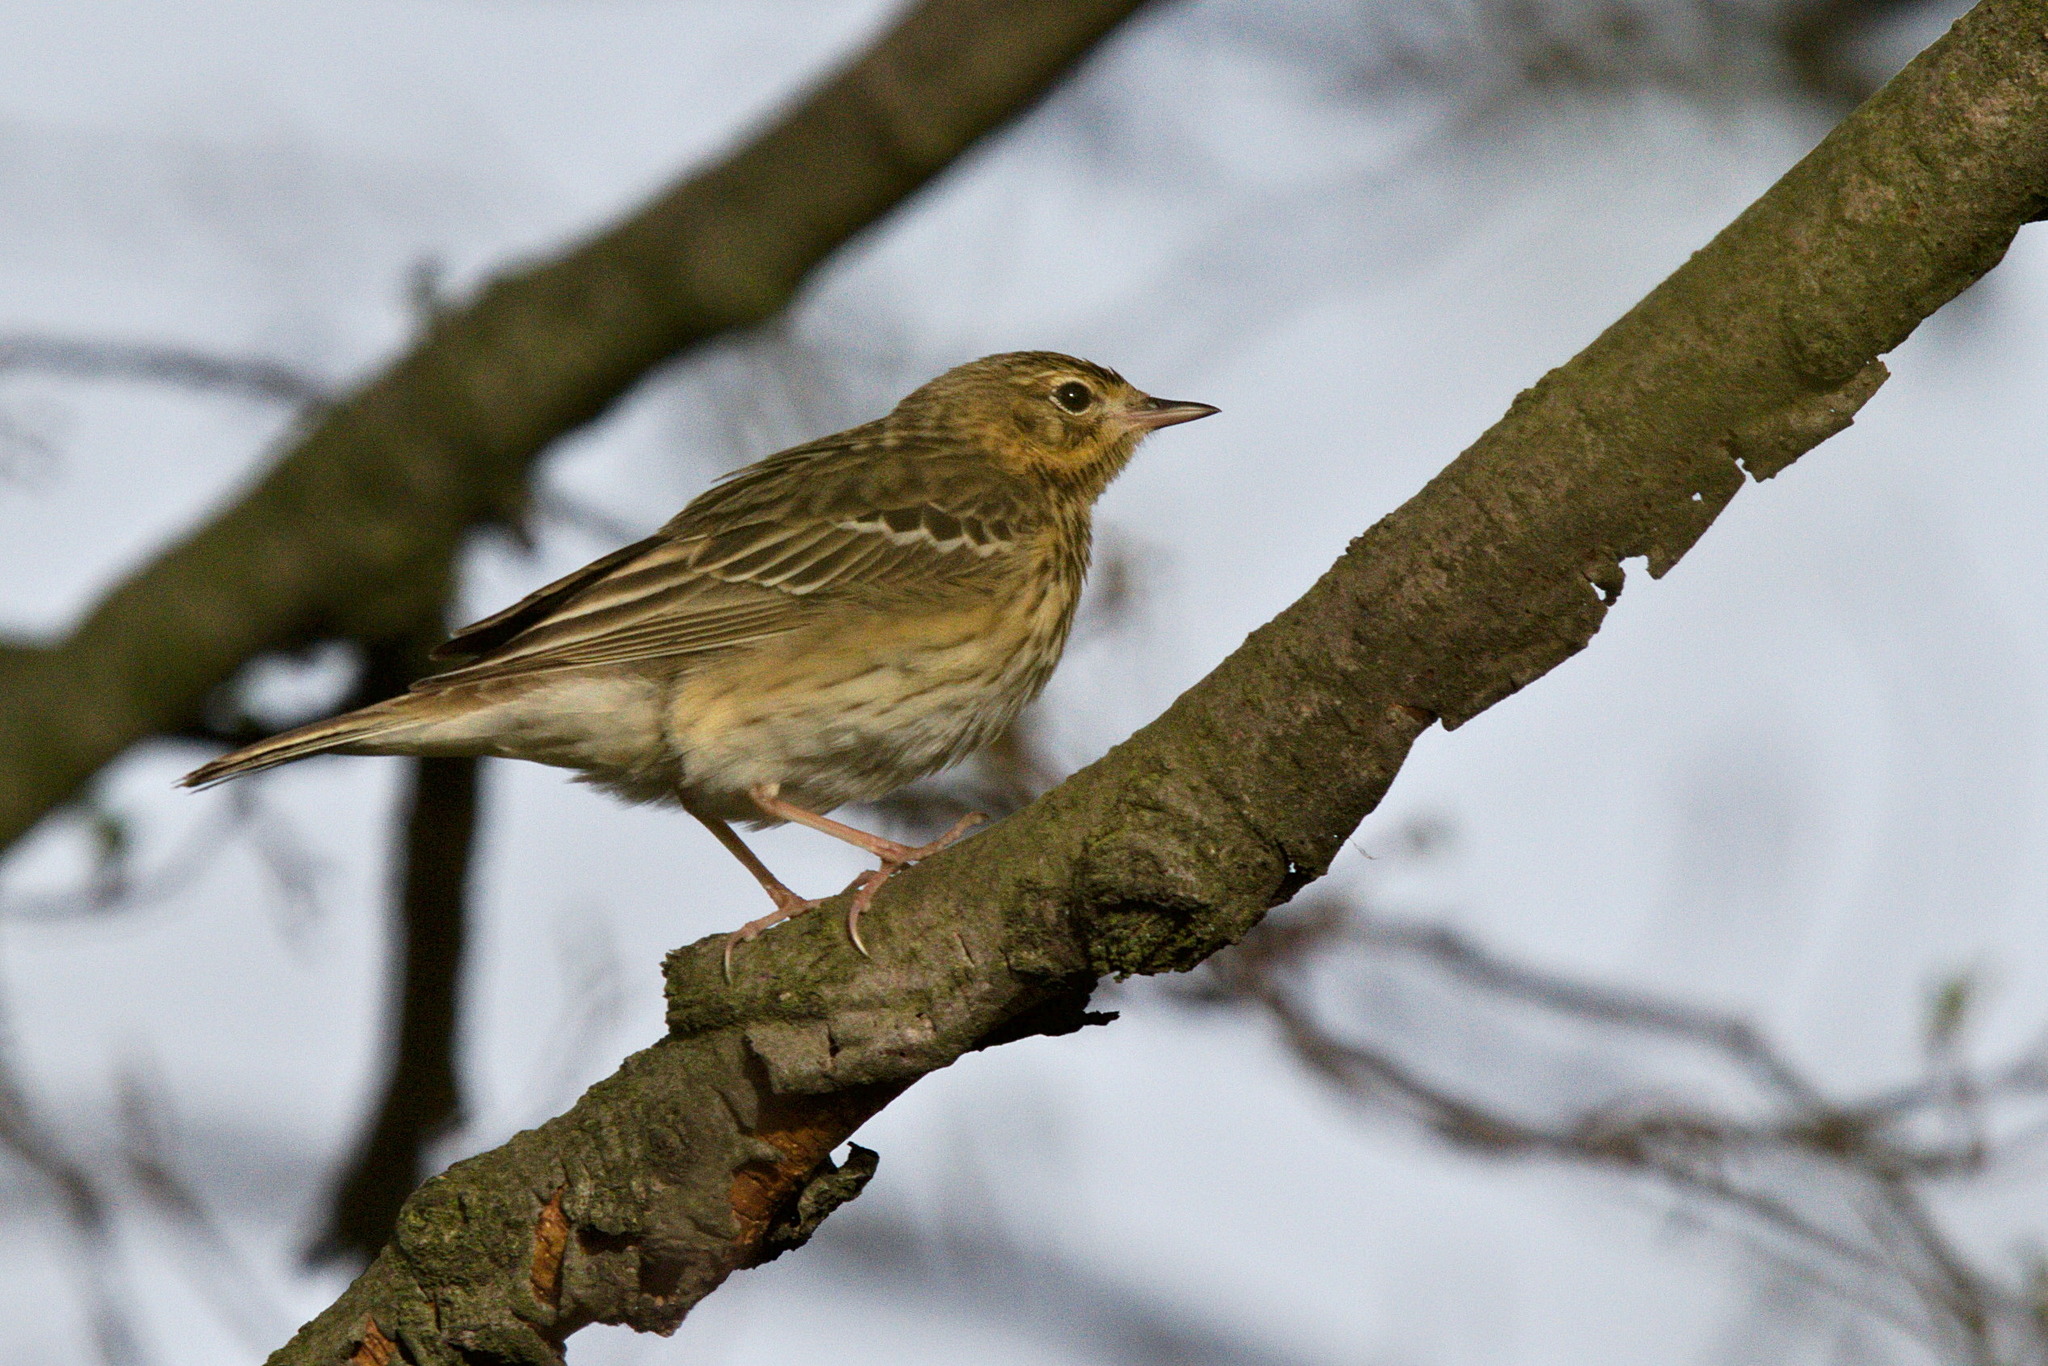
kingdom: Animalia
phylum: Chordata
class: Aves
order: Passeriformes
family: Motacillidae
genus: Anthus
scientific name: Anthus trivialis
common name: Tree pipit
